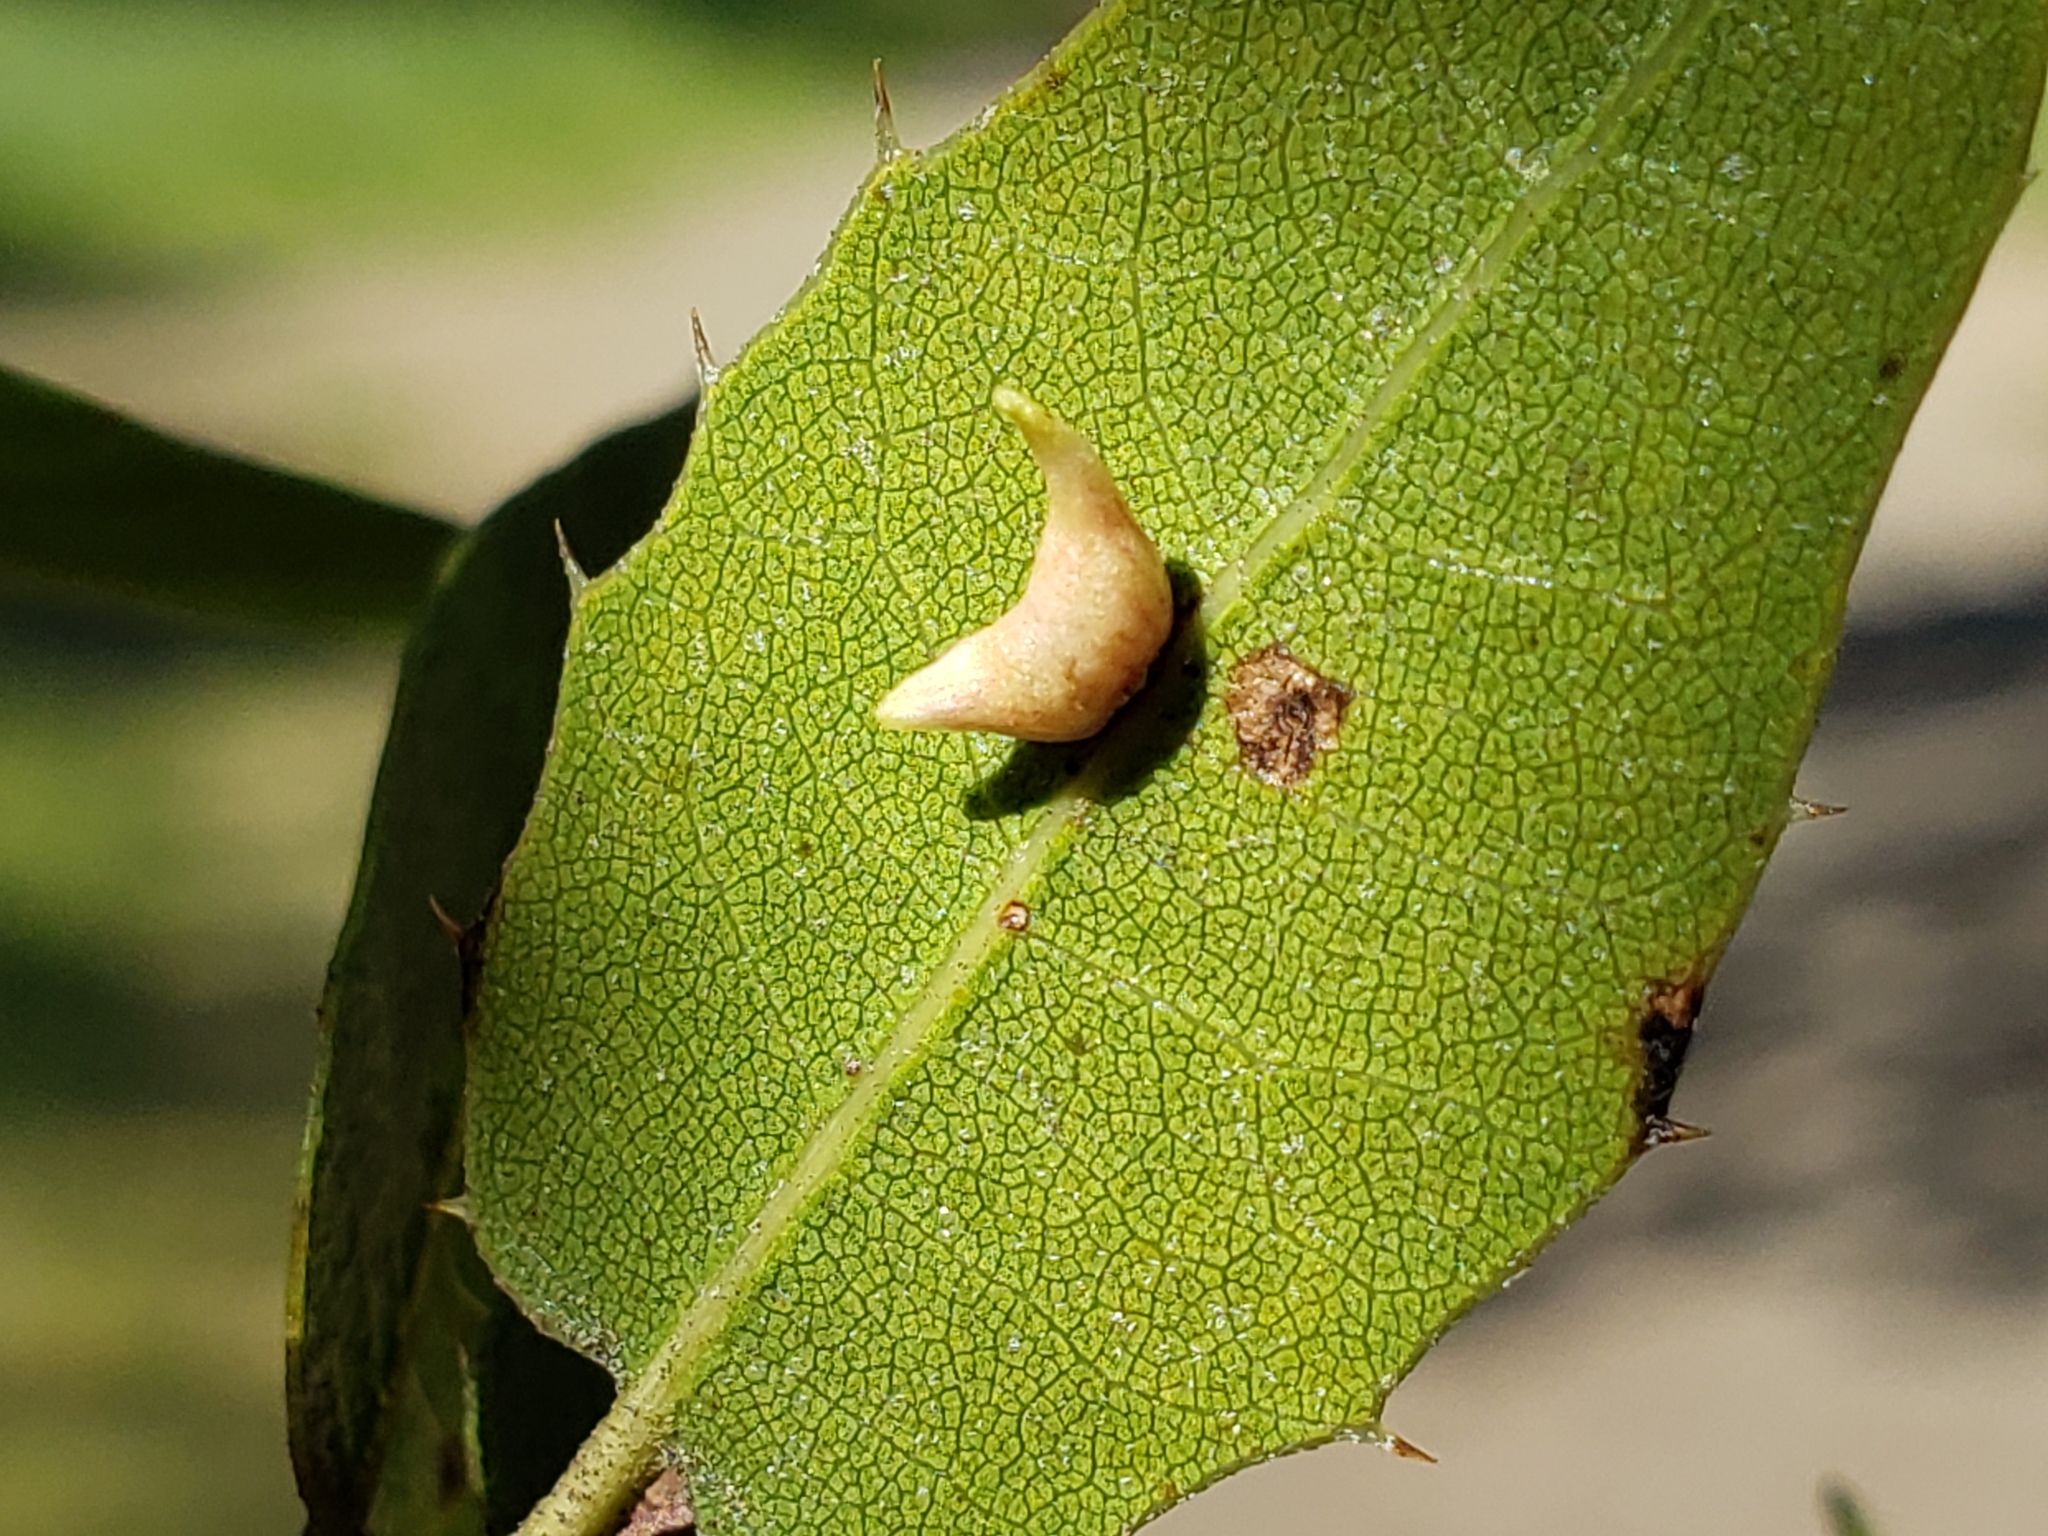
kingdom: Animalia
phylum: Arthropoda
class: Insecta
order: Hymenoptera
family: Cynipidae
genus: Dryocosmus
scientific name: Dryocosmus
